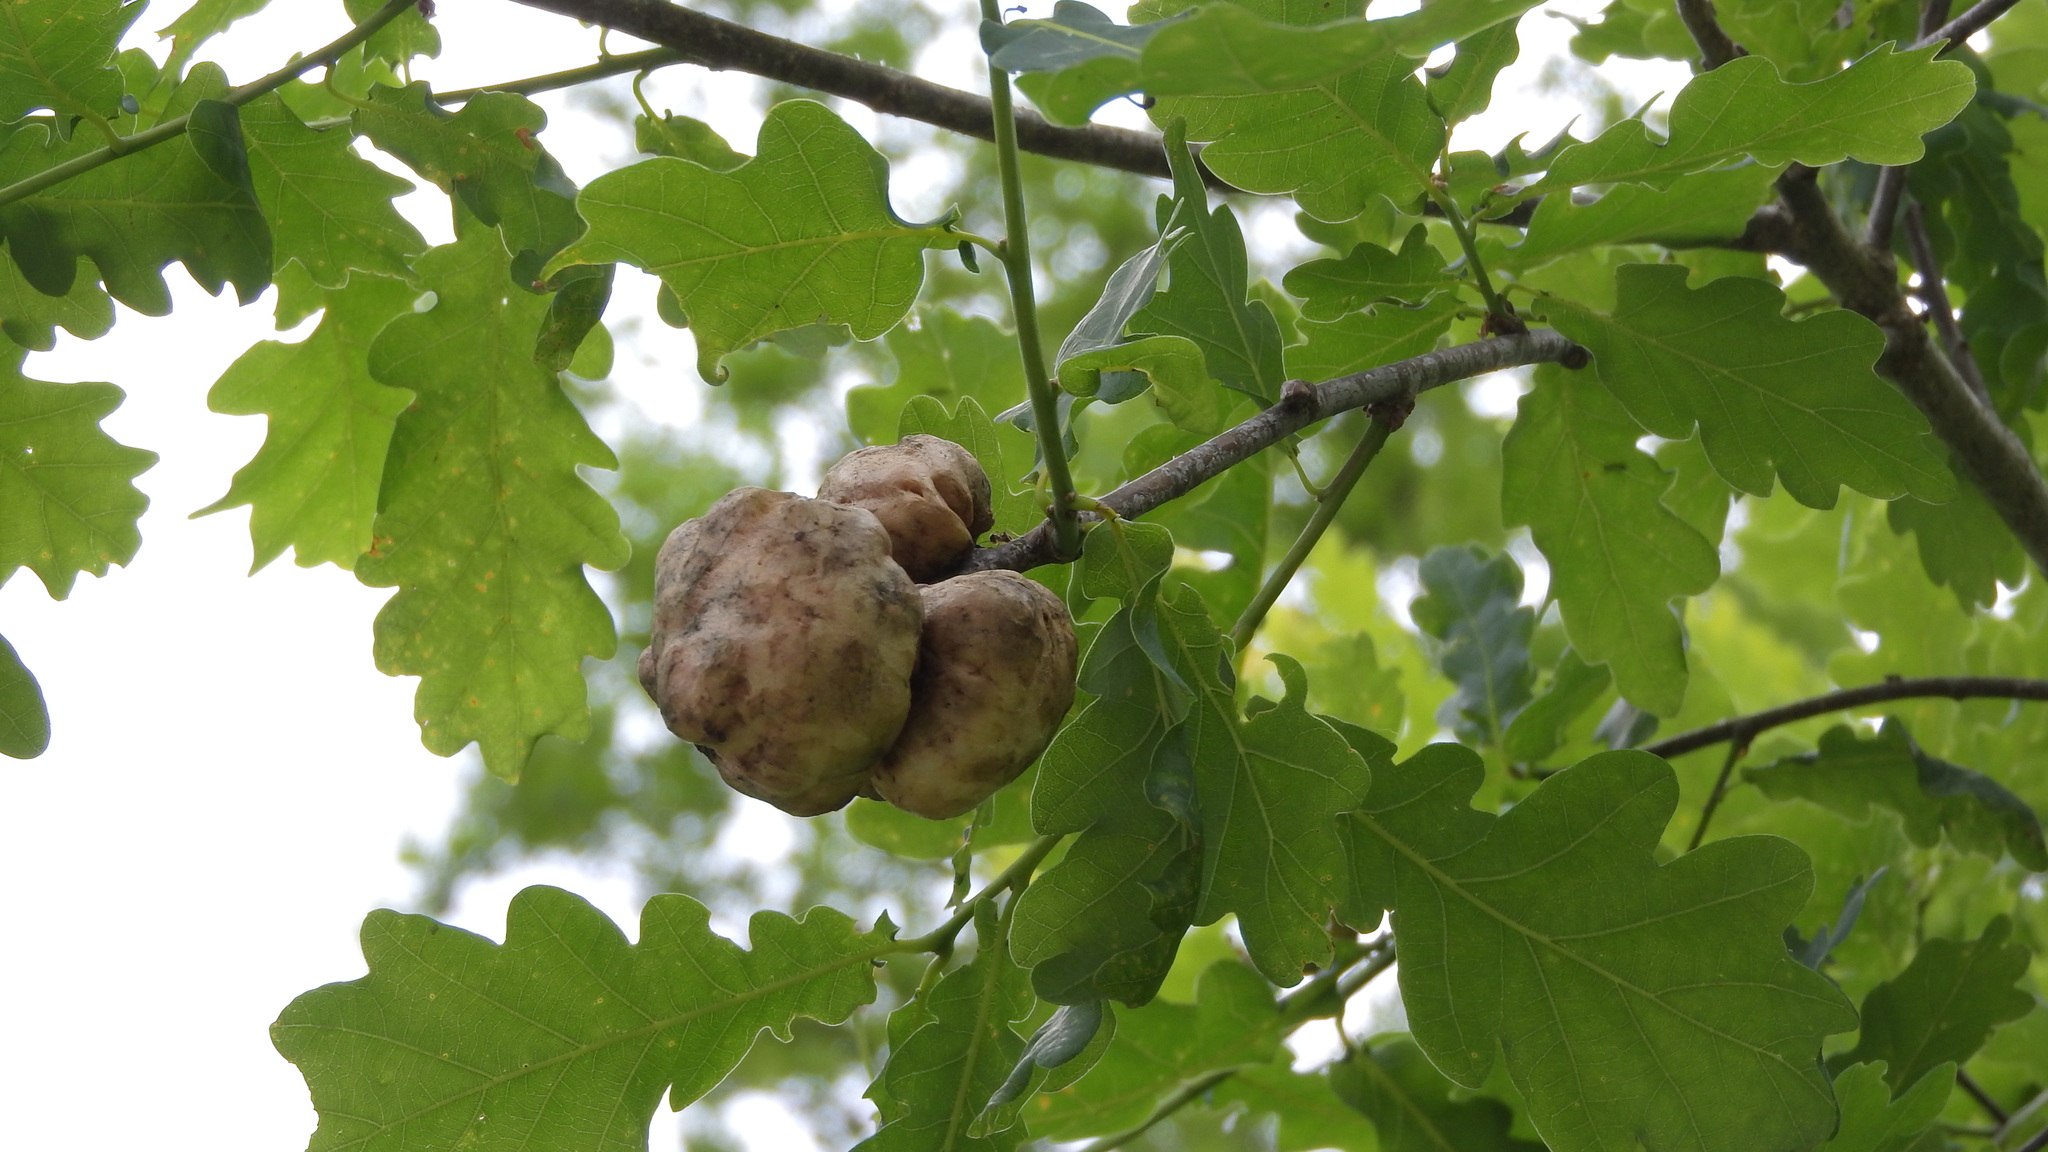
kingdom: Animalia
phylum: Arthropoda
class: Insecta
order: Hymenoptera
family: Cynipidae
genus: Biorhiza
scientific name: Biorhiza pallida
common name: Oak apple
